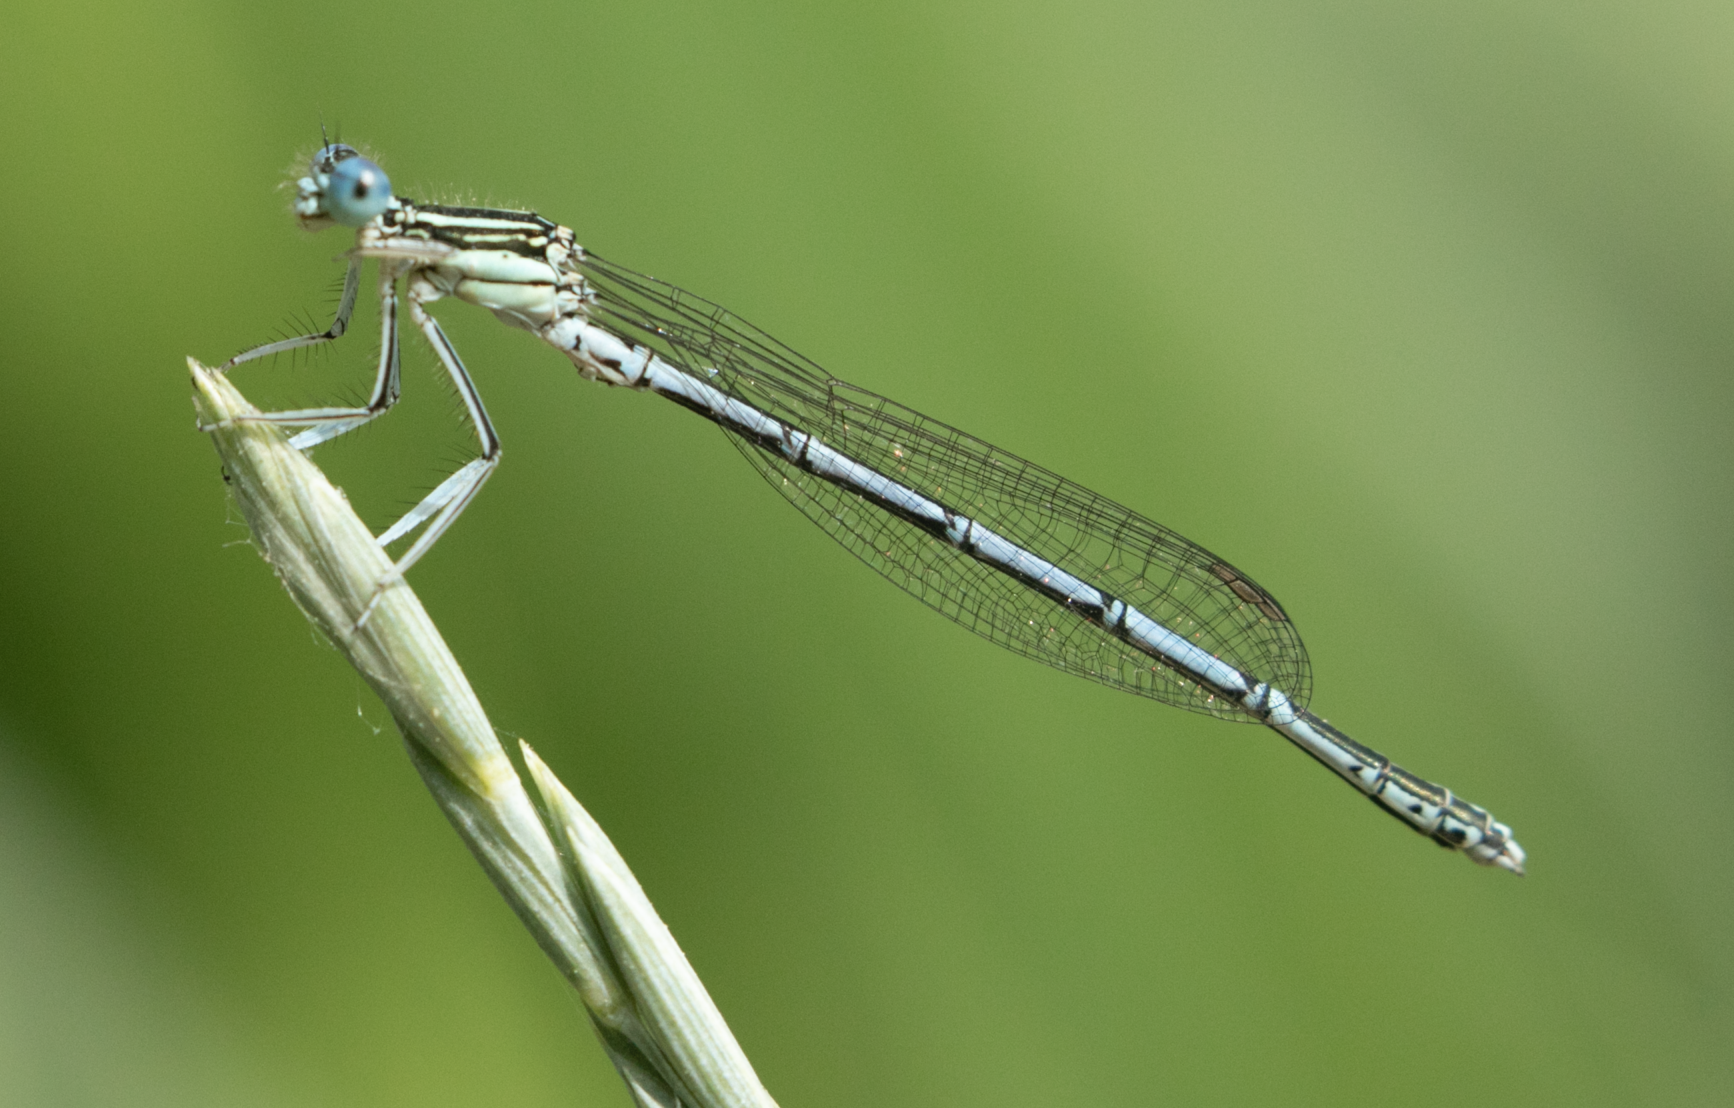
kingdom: Animalia
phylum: Arthropoda
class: Insecta
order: Odonata
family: Platycnemididae
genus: Platycnemis
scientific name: Platycnemis pennipes
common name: White-legged damselfly
